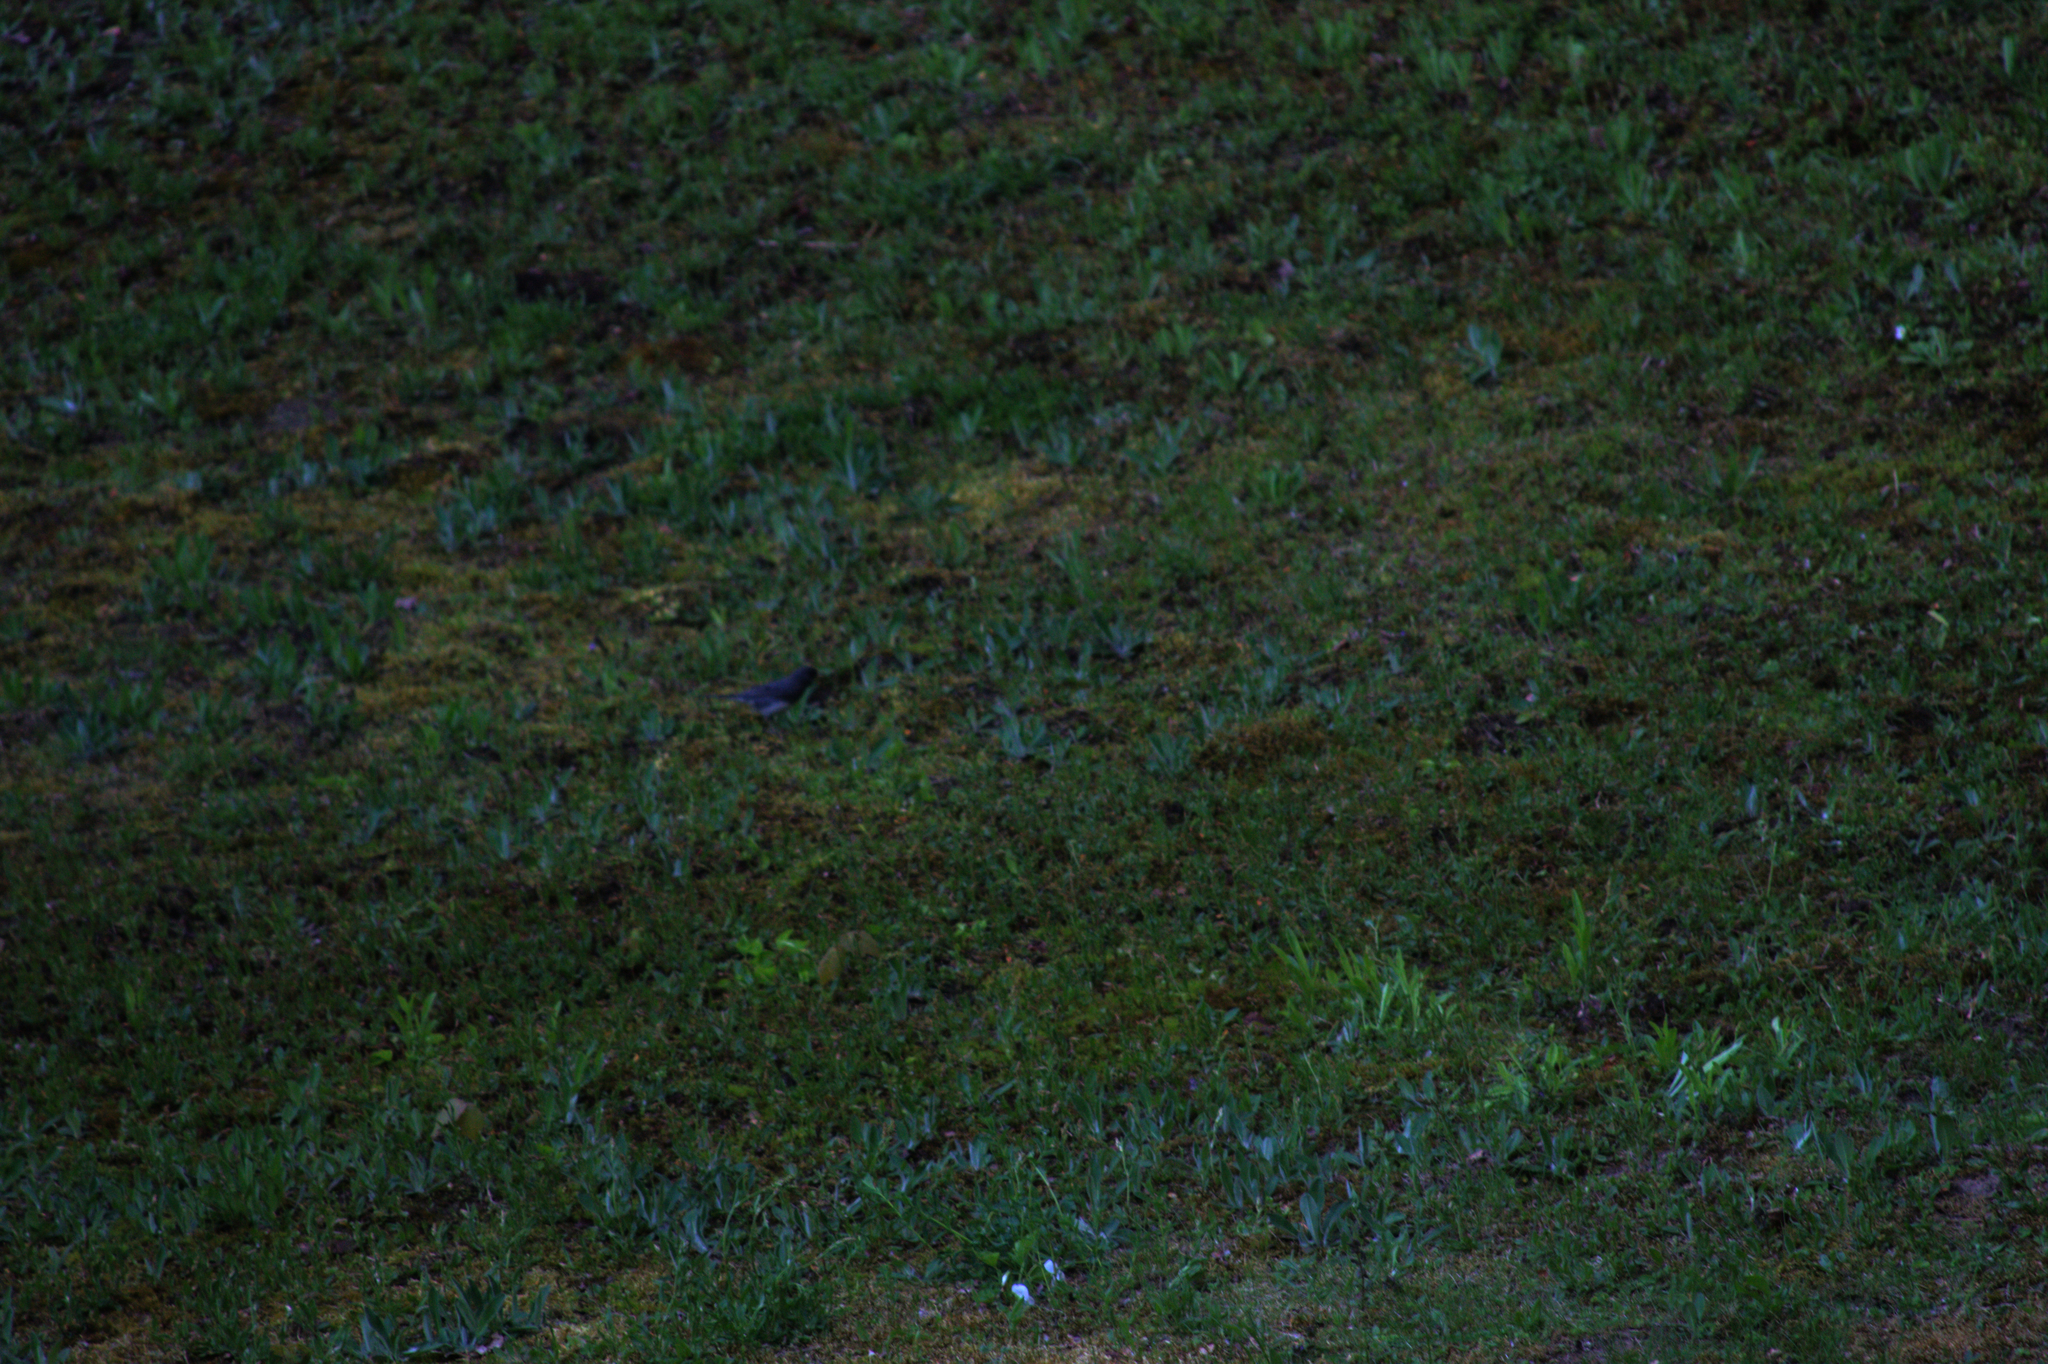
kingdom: Animalia
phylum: Chordata
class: Aves
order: Passeriformes
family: Passerellidae
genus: Junco
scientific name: Junco hyemalis
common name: Dark-eyed junco
